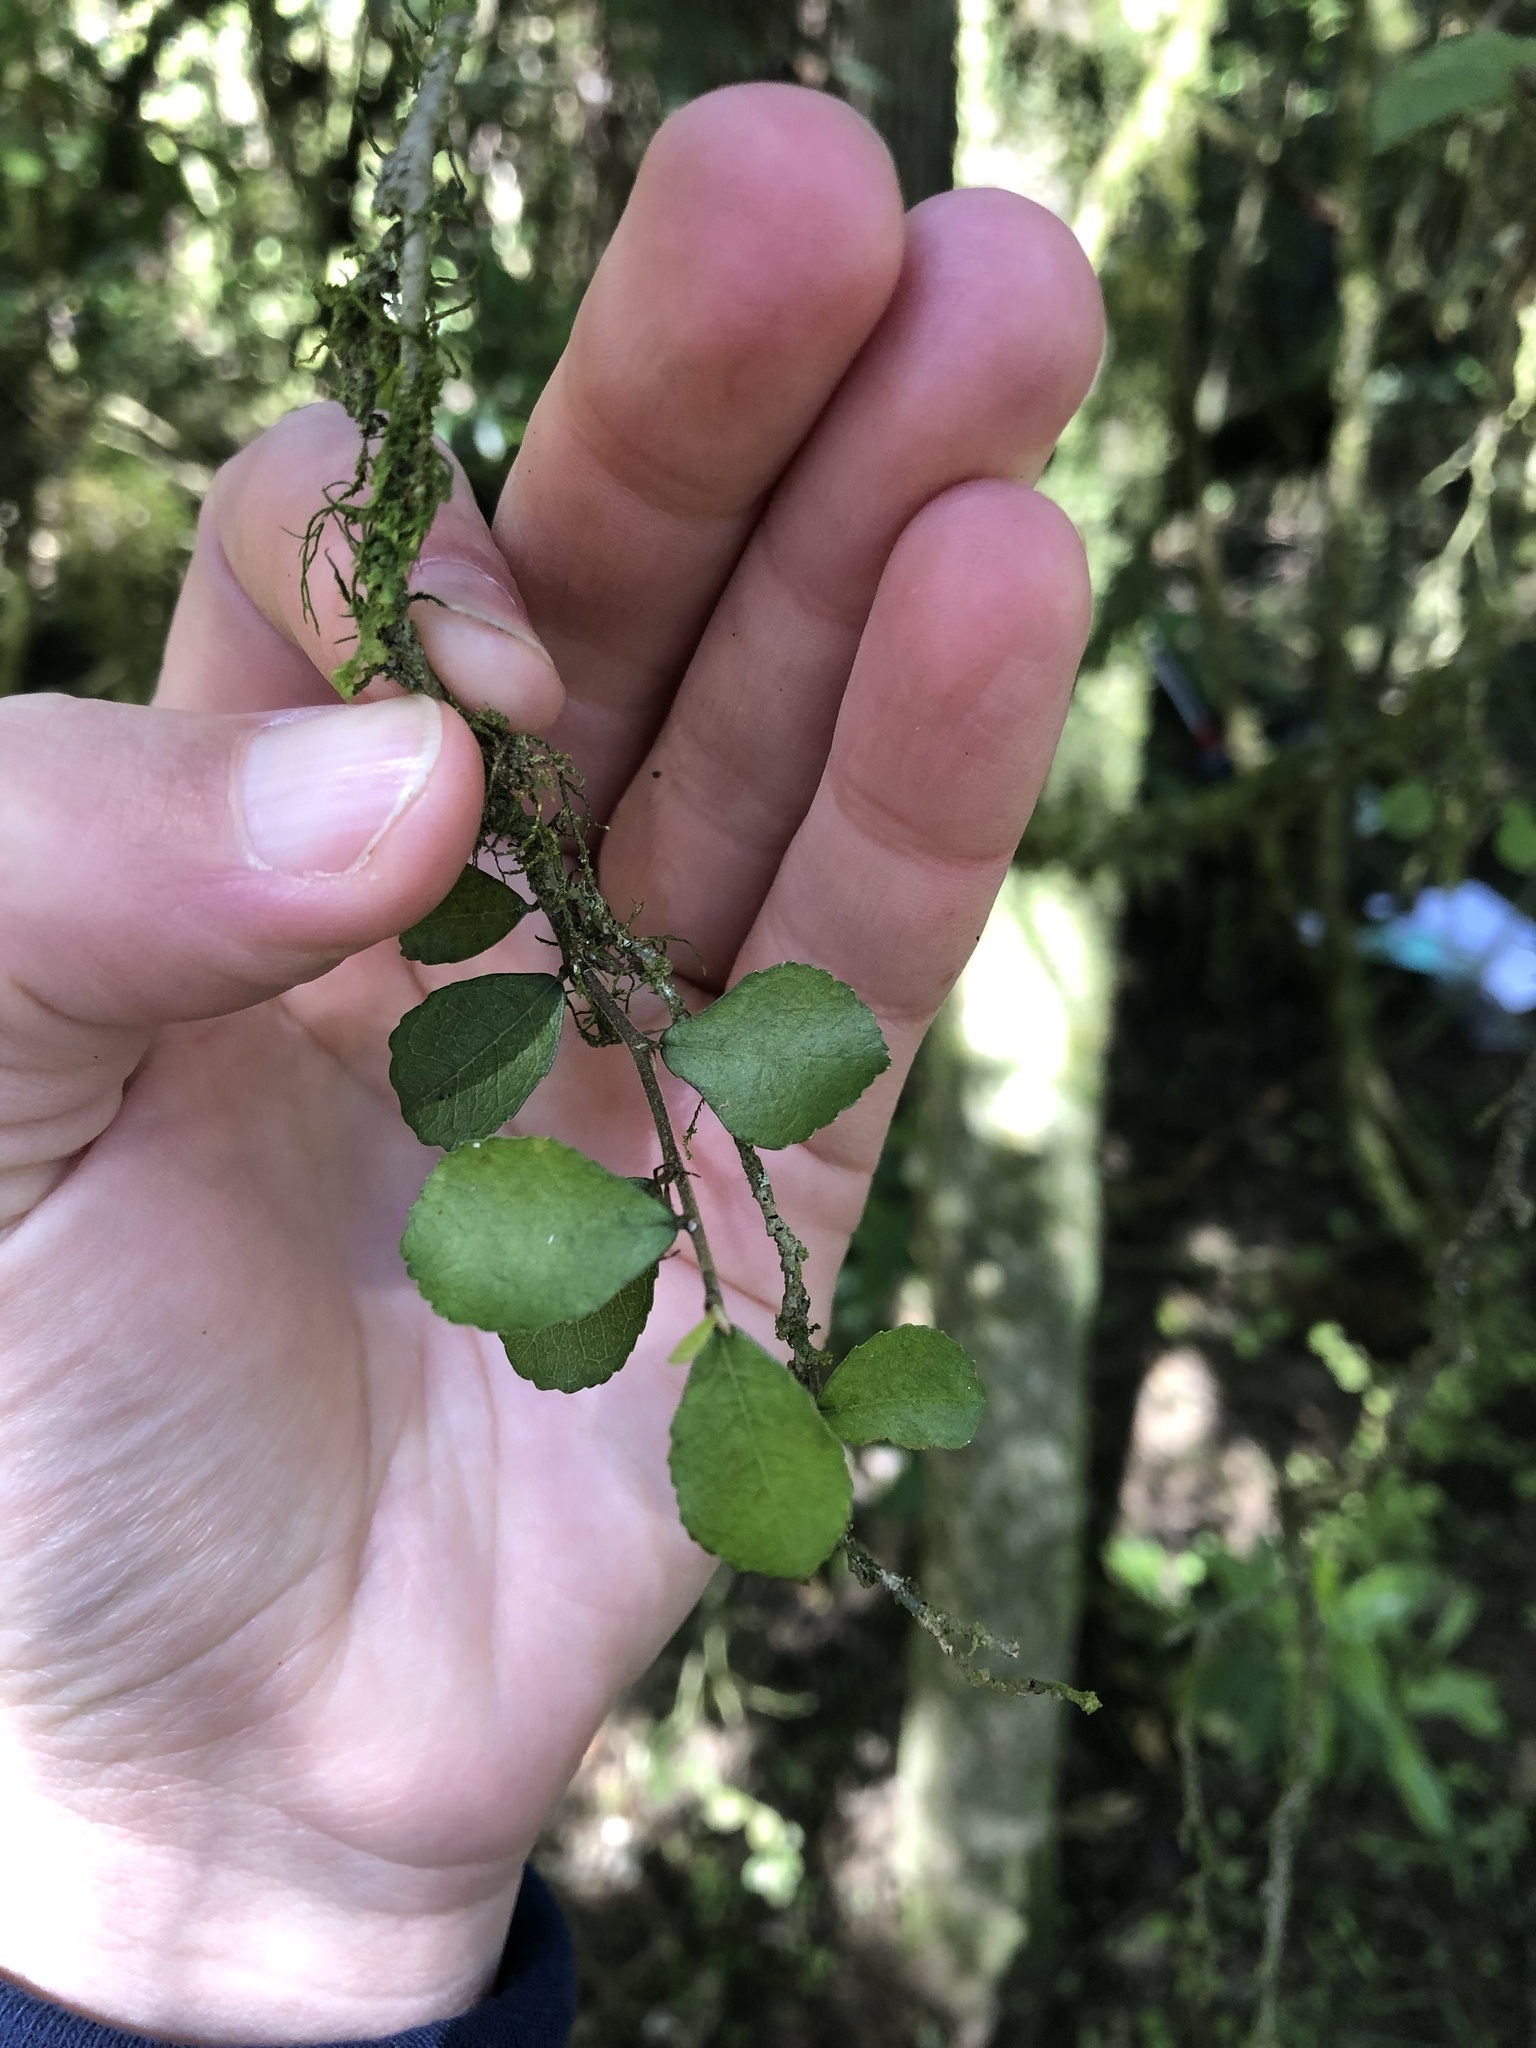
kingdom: Plantae
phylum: Tracheophyta
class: Magnoliopsida
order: Rosales
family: Moraceae
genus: Paratrophis
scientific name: Paratrophis microphylla
